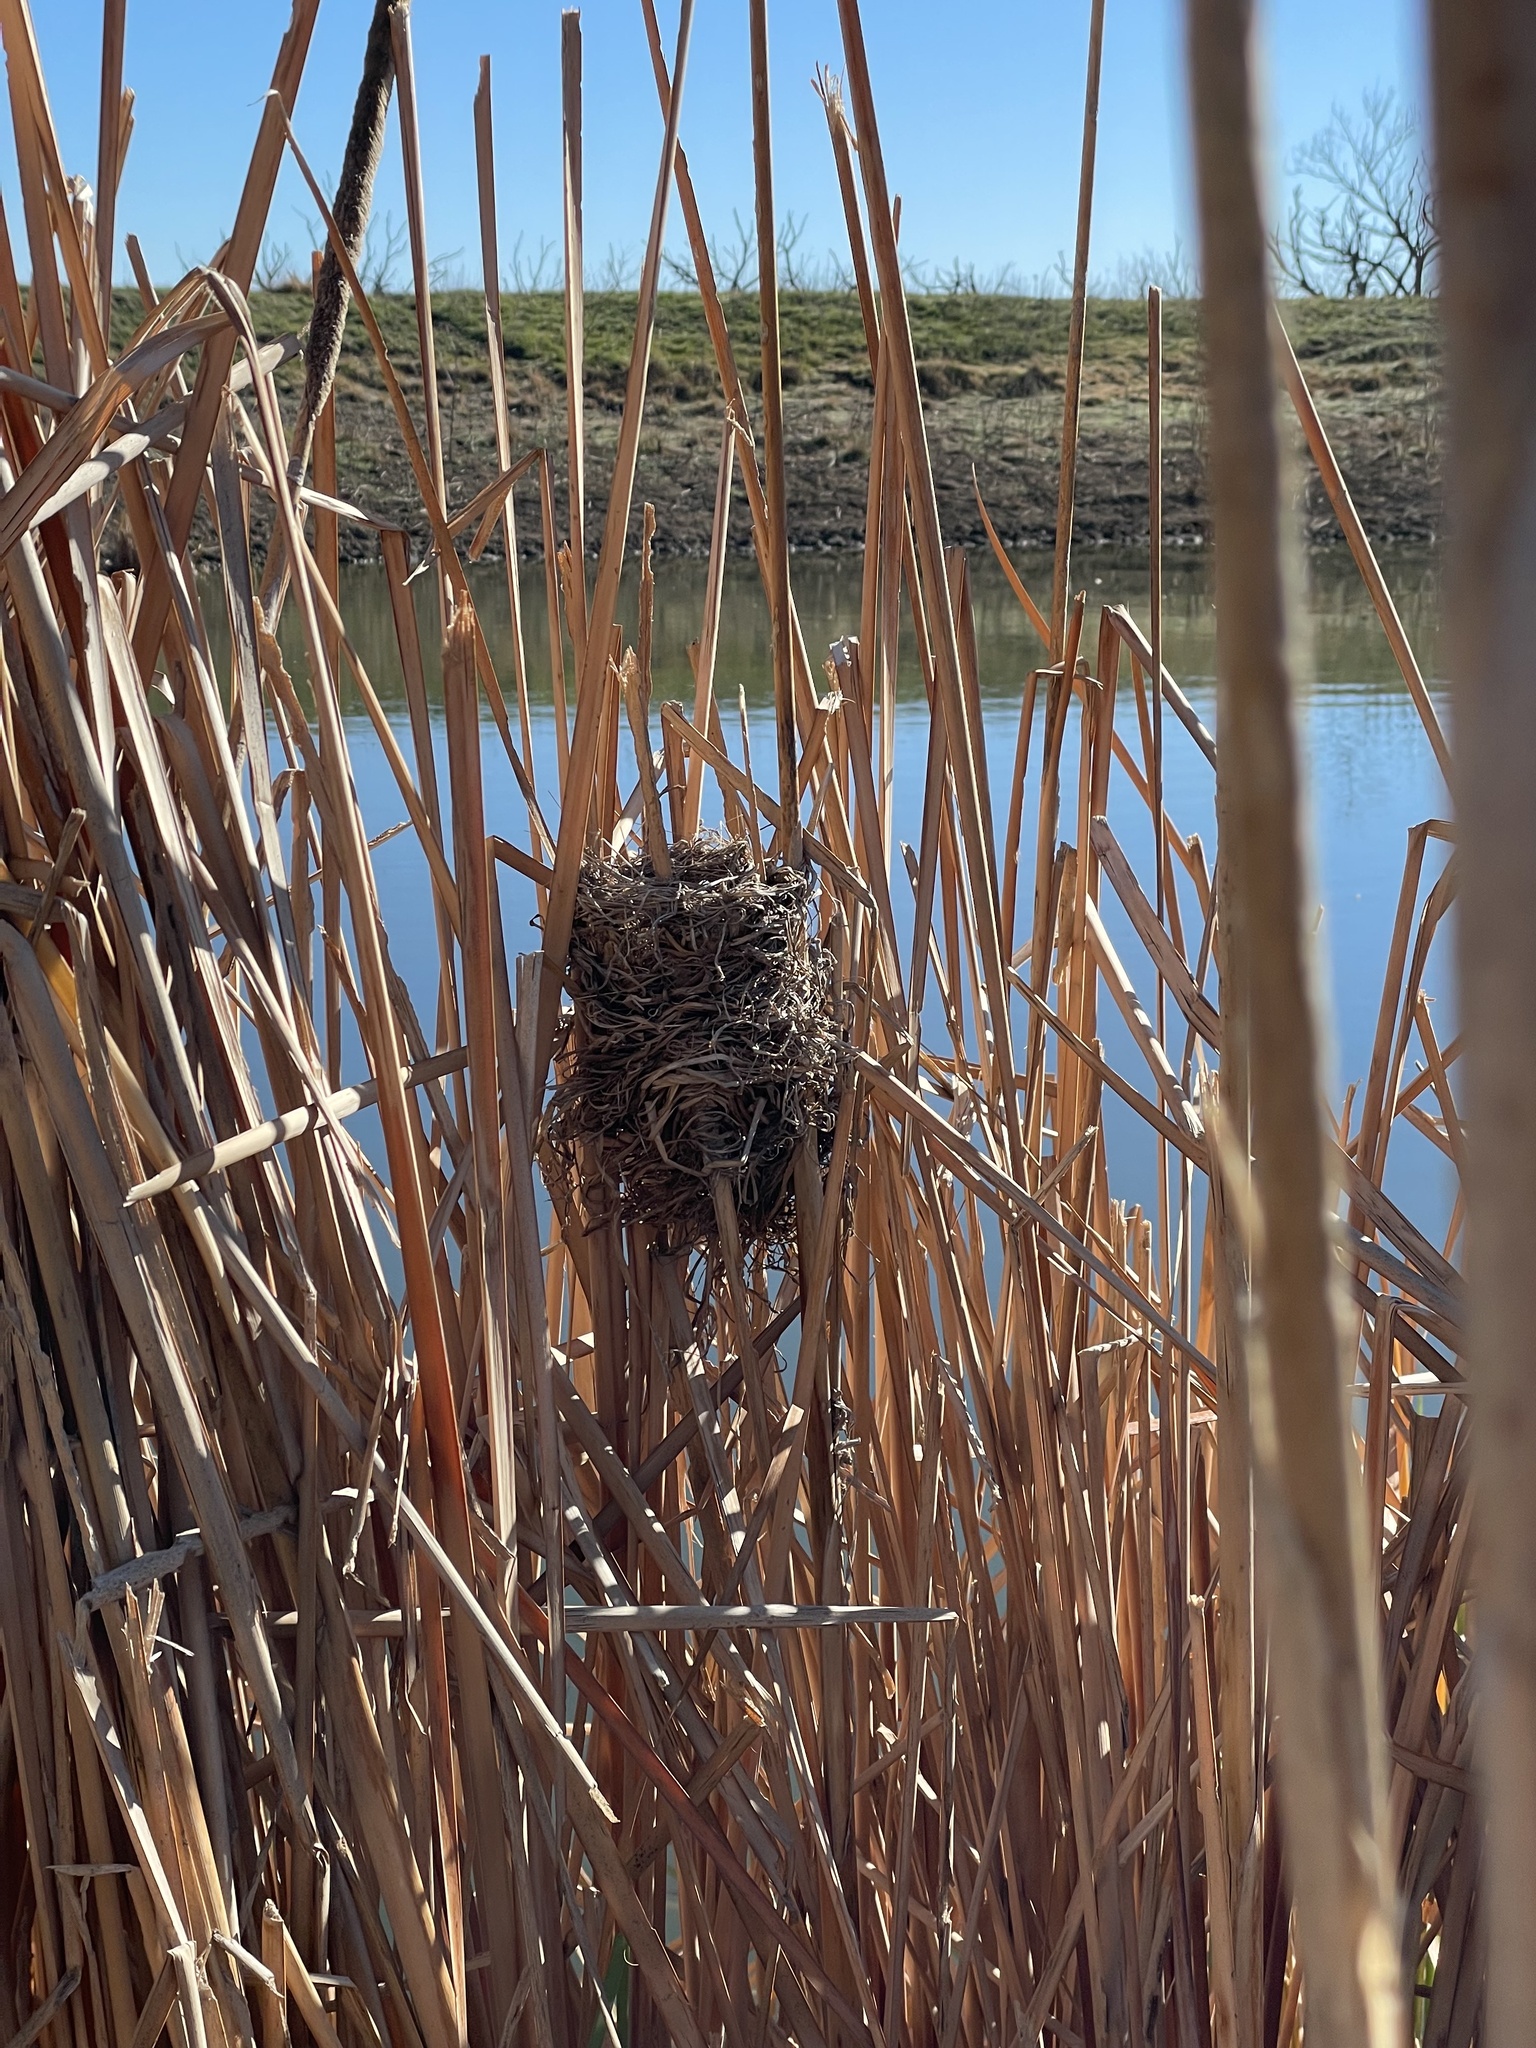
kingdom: Animalia
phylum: Chordata
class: Aves
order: Passeriformes
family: Icteridae
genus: Agelaius
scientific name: Agelaius phoeniceus
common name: Red-winged blackbird
